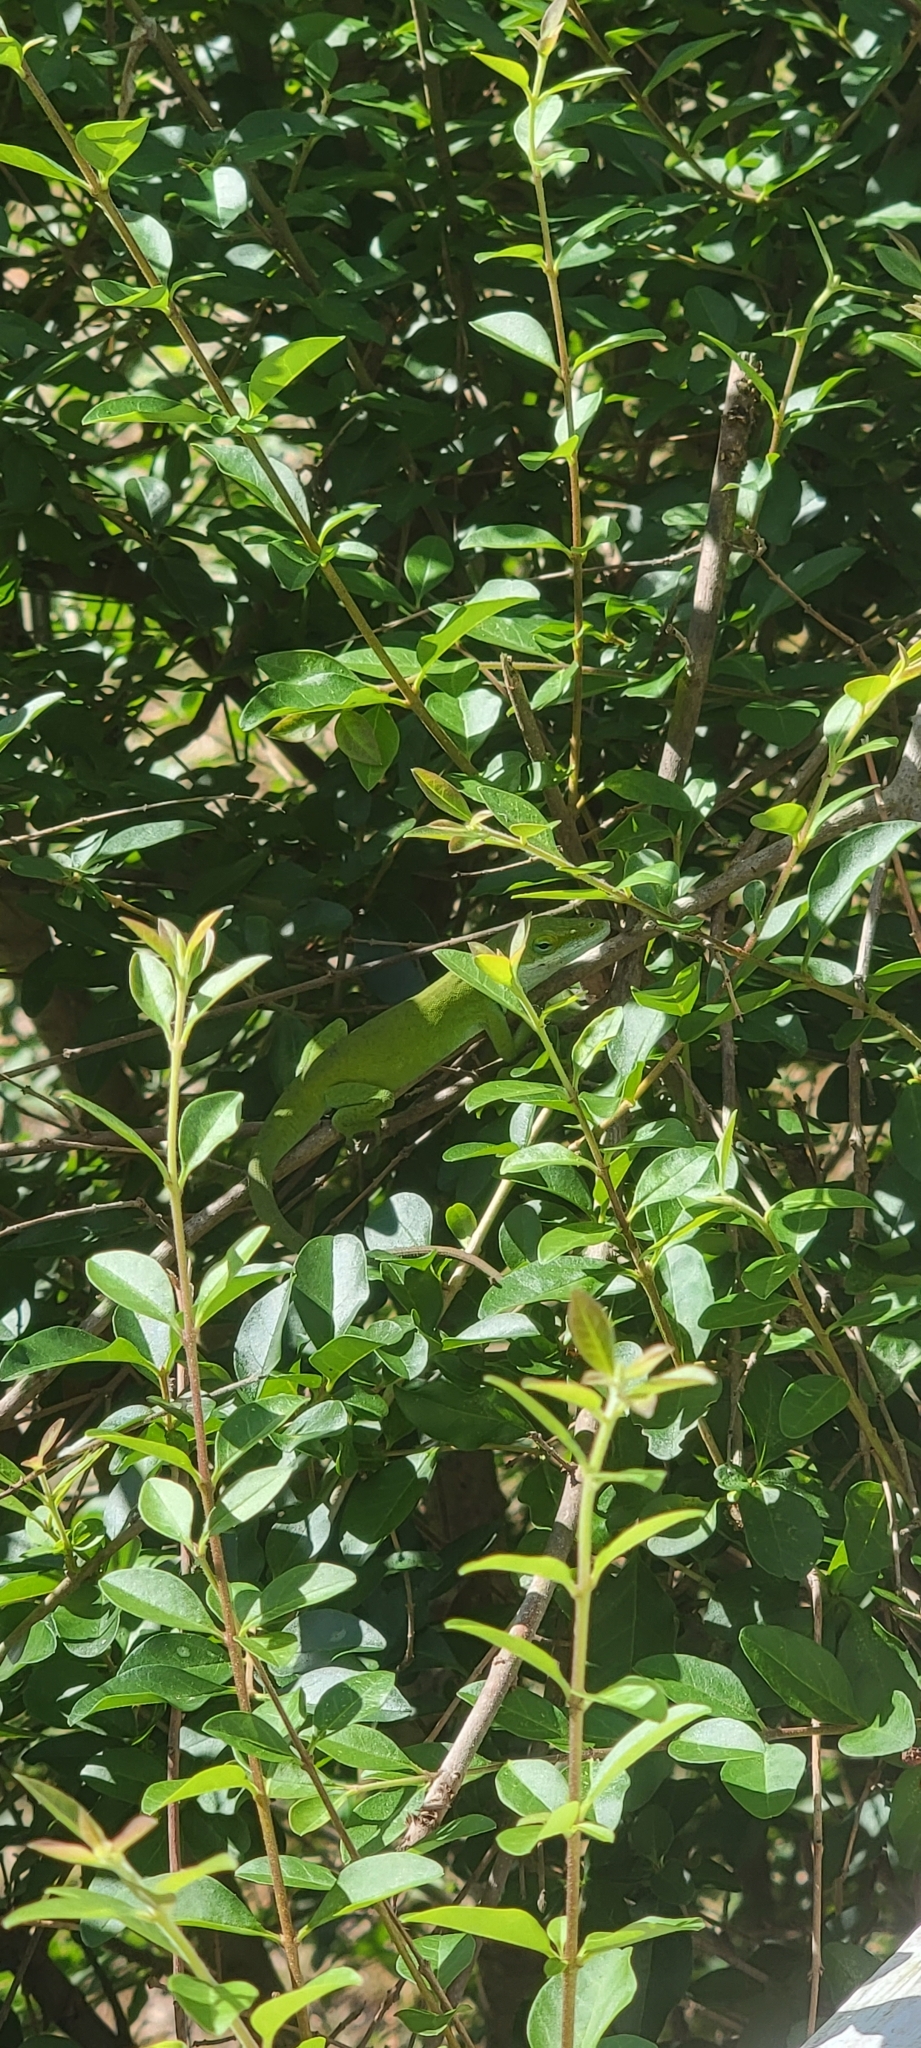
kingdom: Animalia
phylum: Chordata
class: Squamata
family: Dactyloidae
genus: Anolis
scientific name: Anolis carolinensis
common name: Green anole
